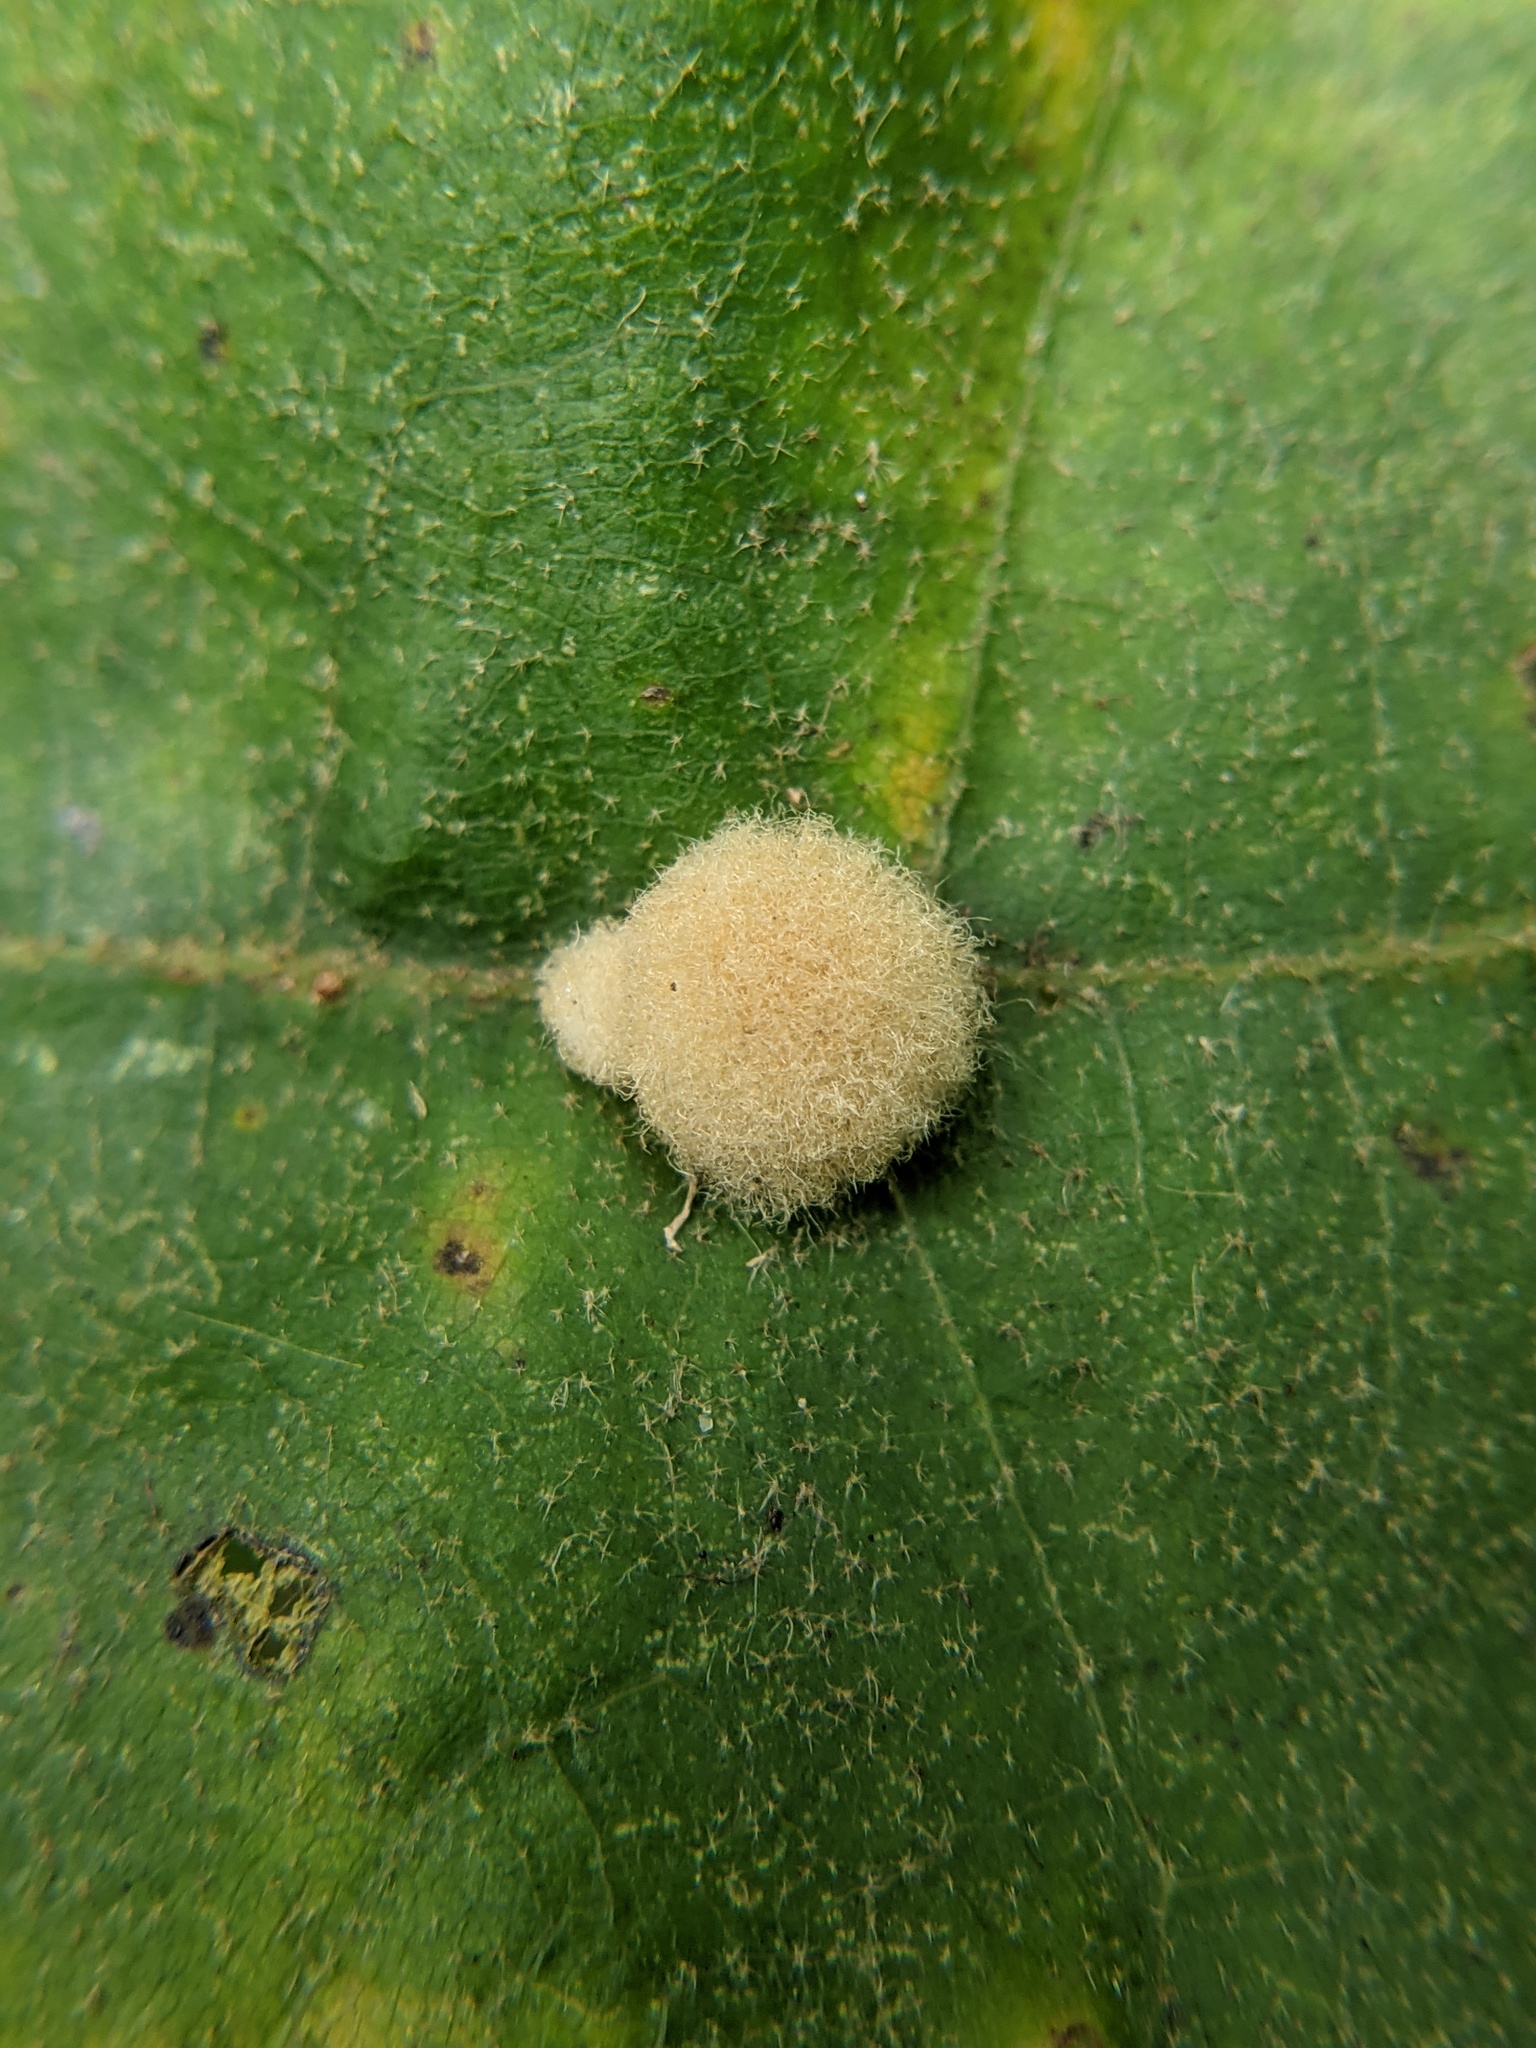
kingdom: Animalia
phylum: Arthropoda
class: Insecta
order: Hymenoptera
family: Cynipidae
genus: Callirhytis
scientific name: Callirhytis
